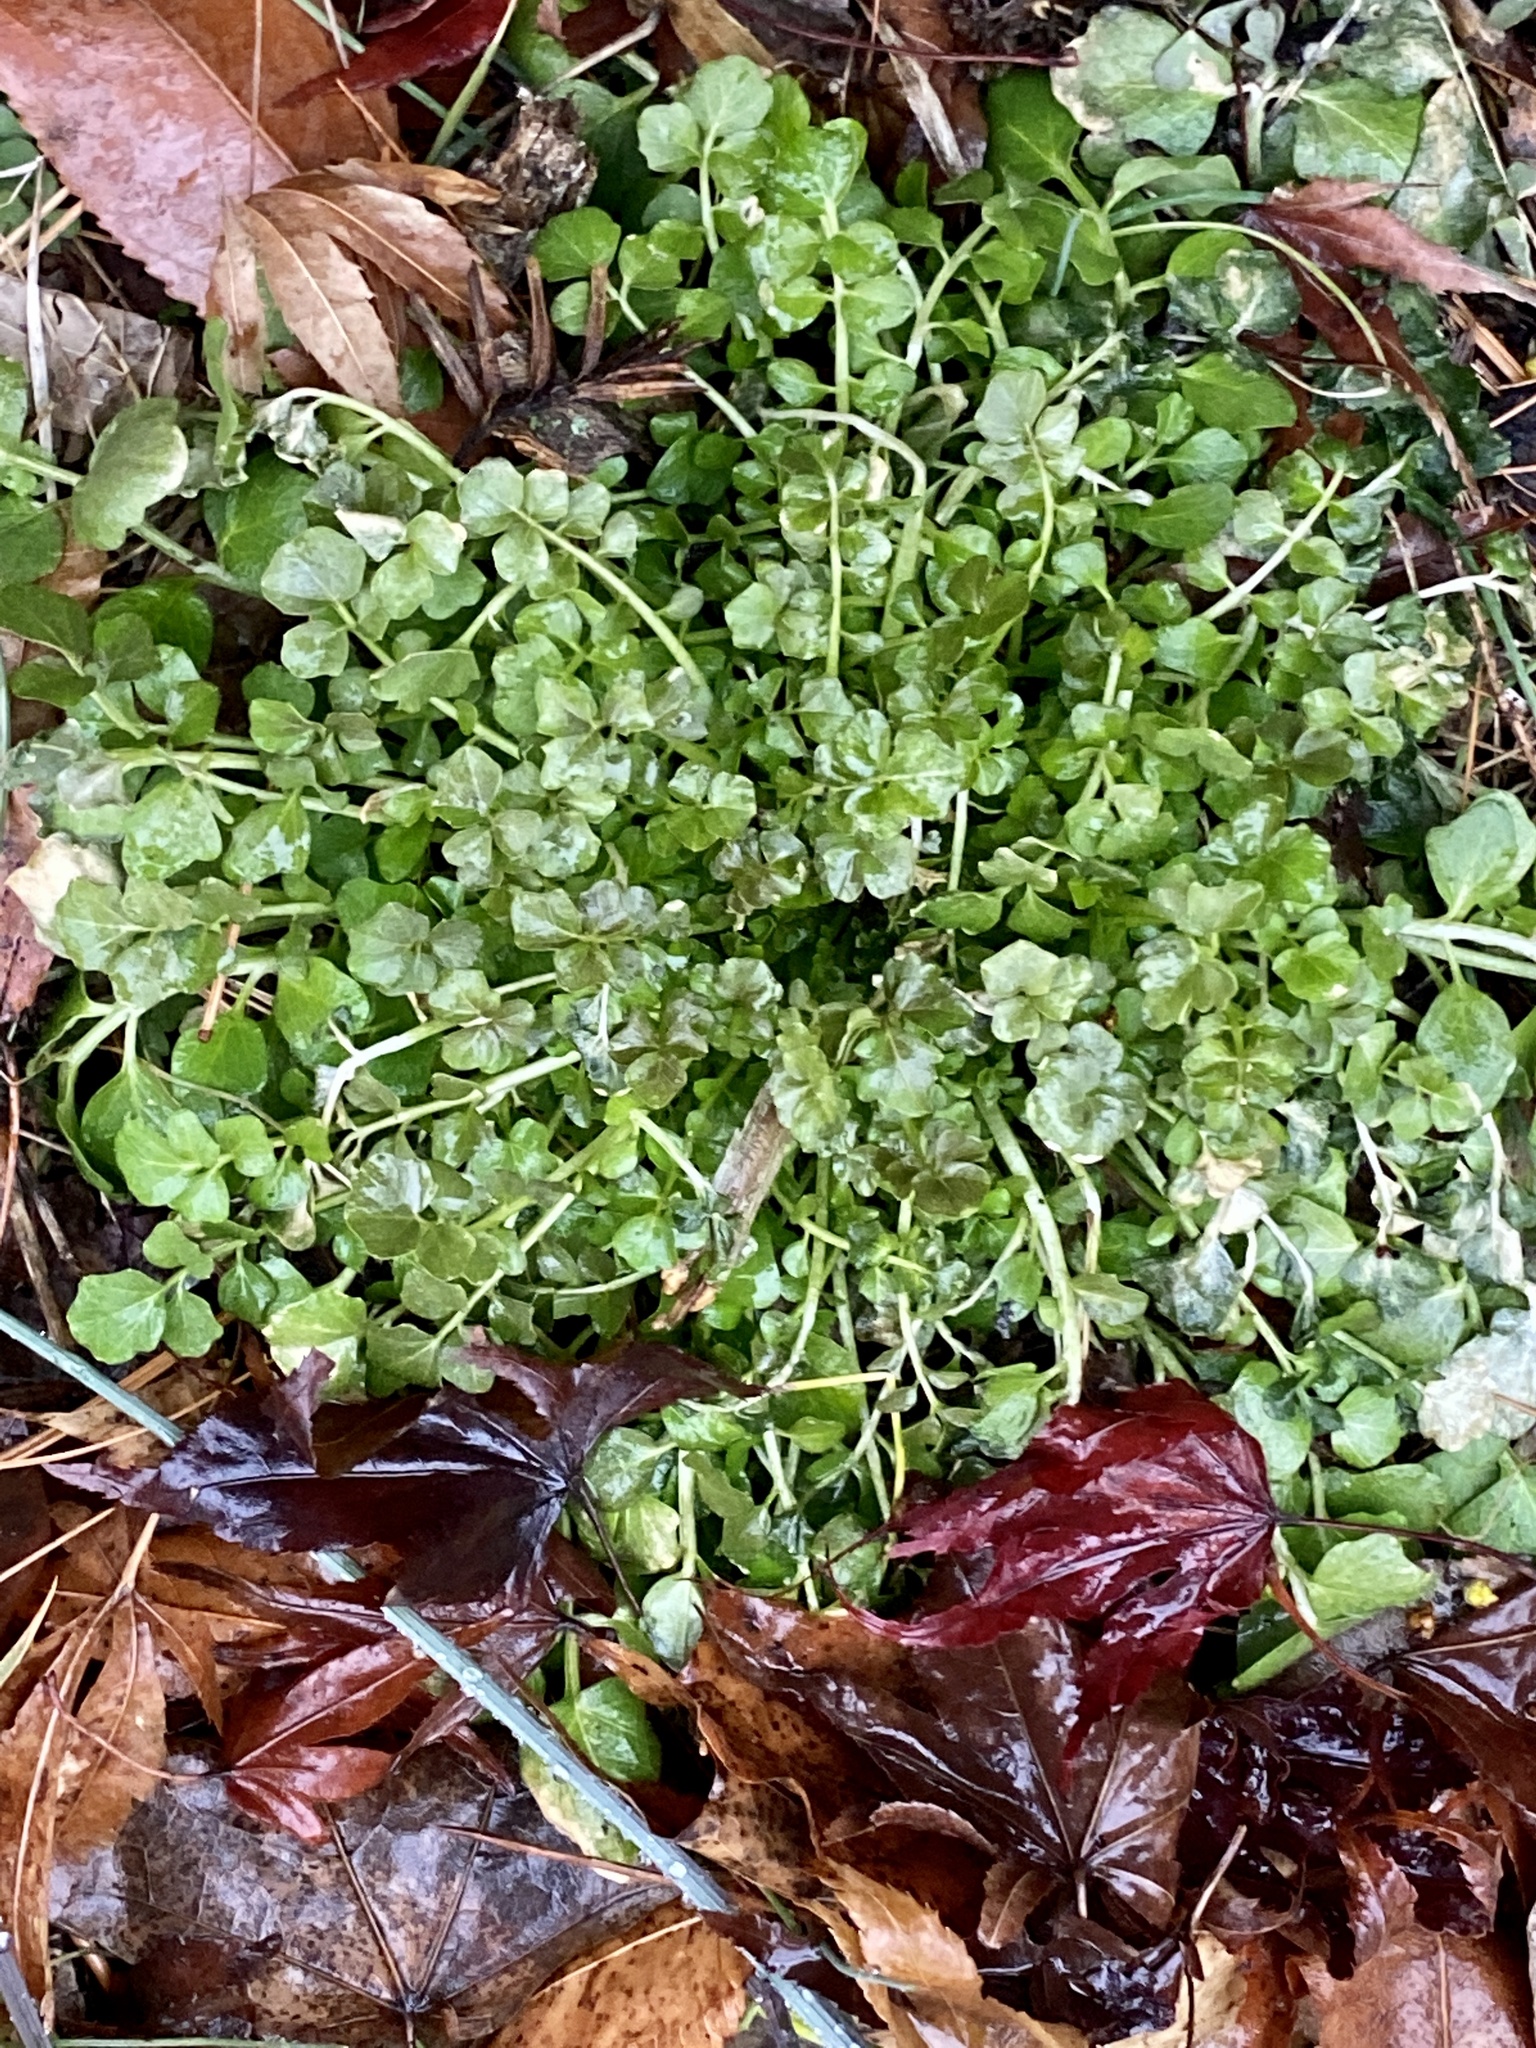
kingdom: Plantae
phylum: Tracheophyta
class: Magnoliopsida
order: Brassicales
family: Brassicaceae
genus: Cardamine
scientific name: Cardamine hirsuta
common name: Hairy bittercress
